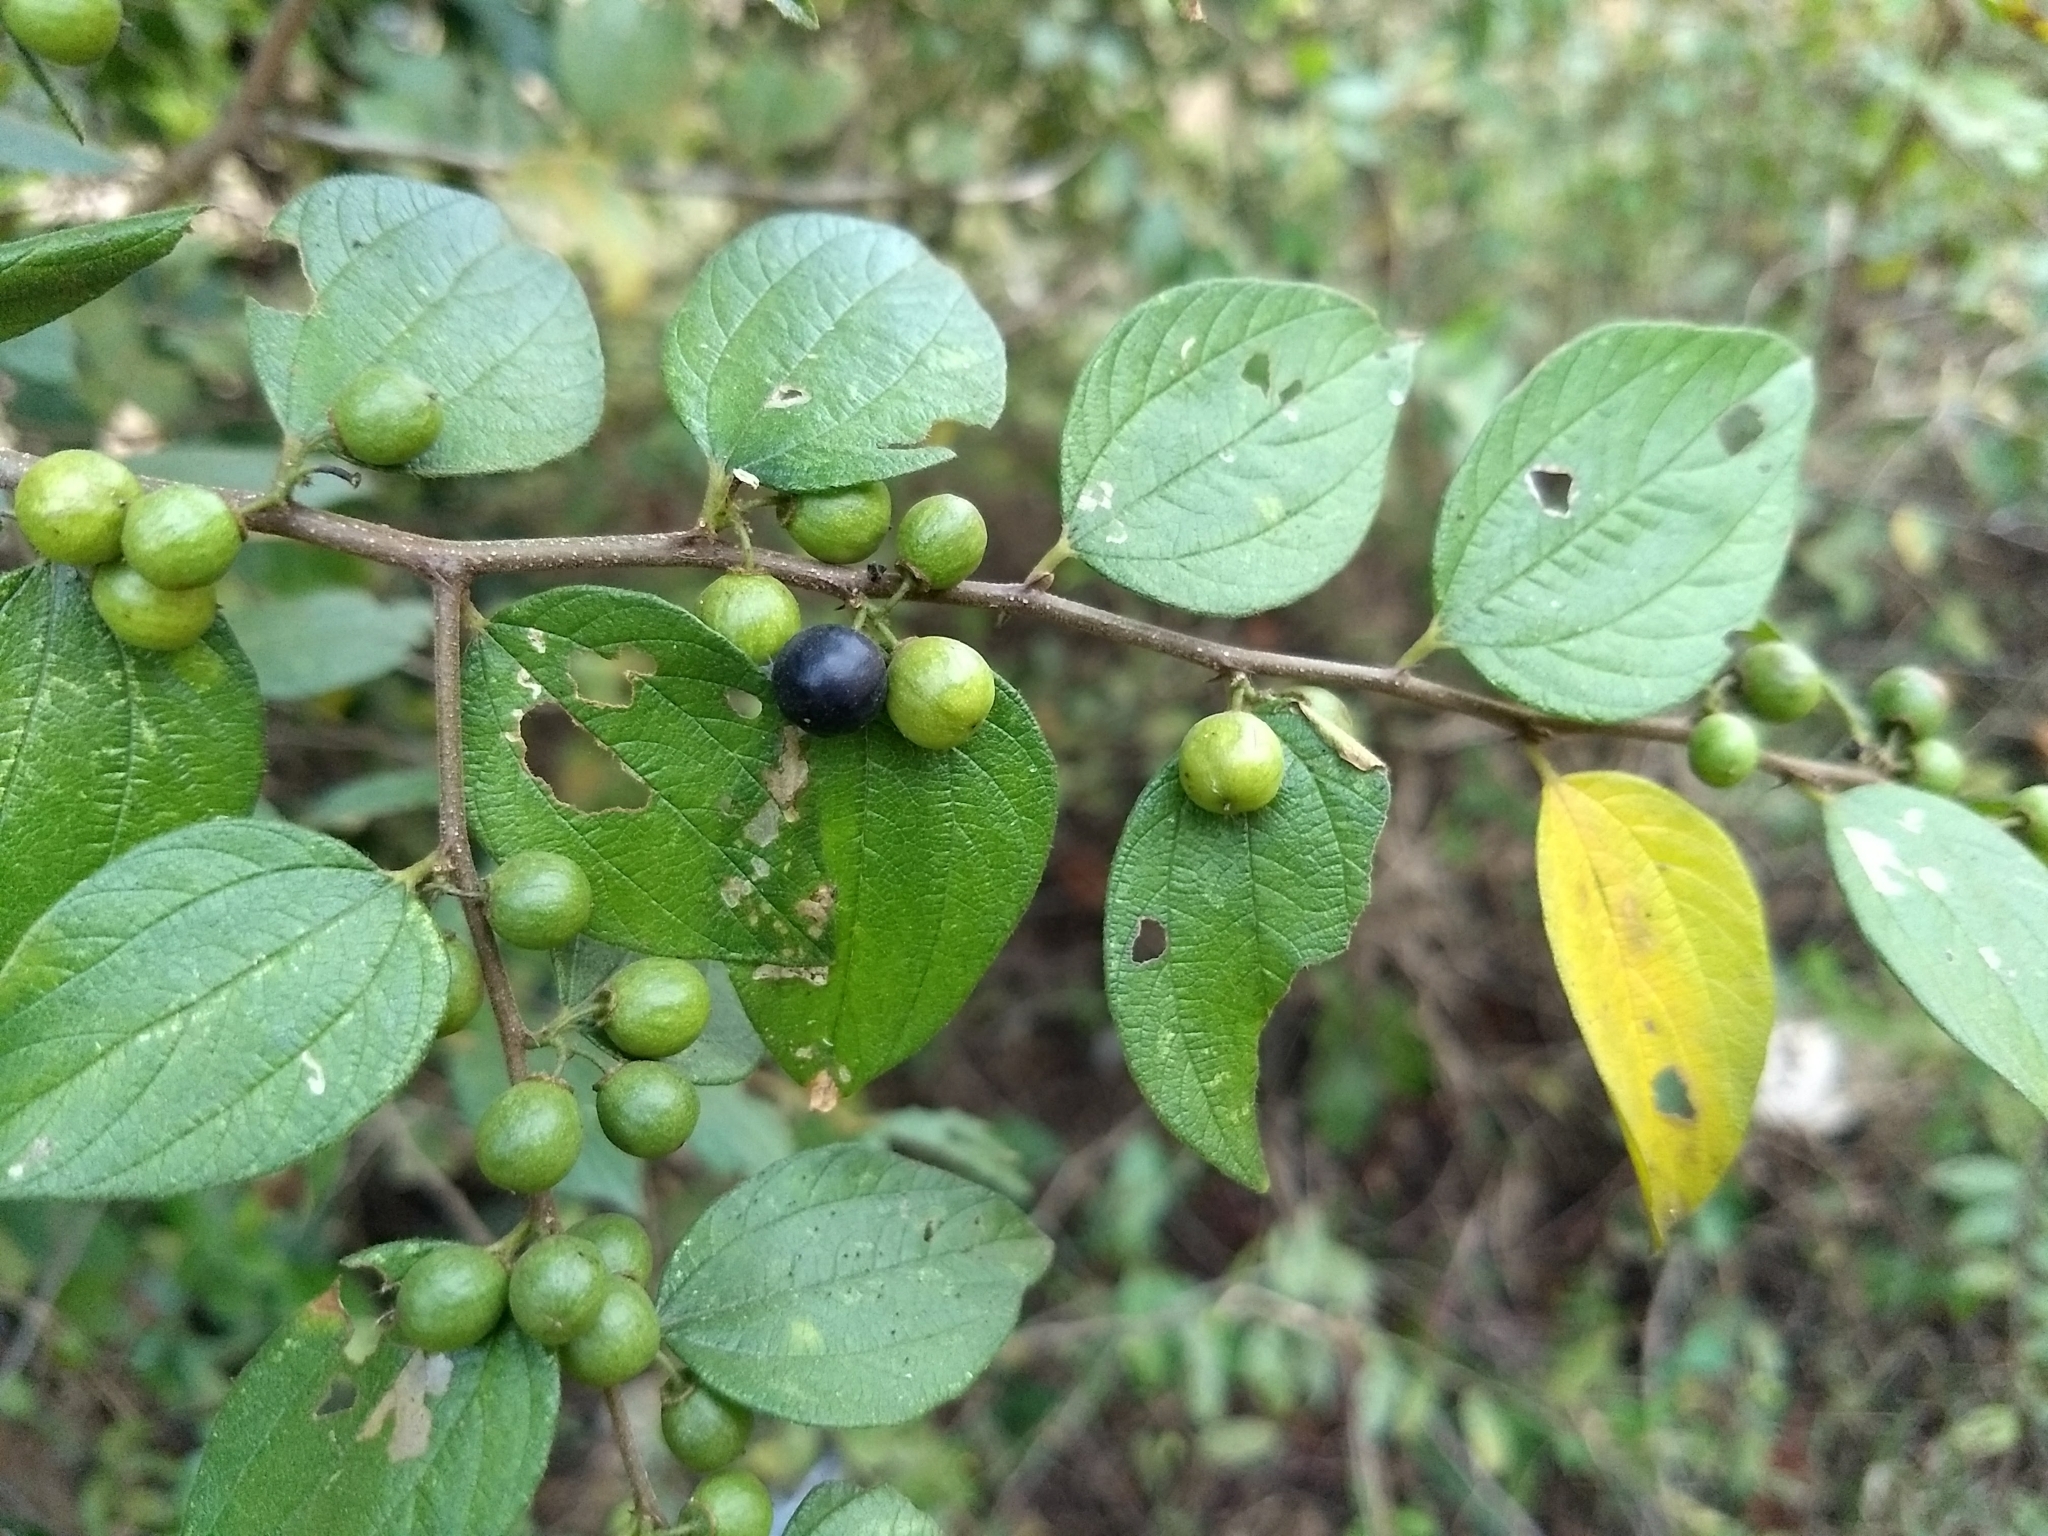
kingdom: Plantae
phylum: Tracheophyta
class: Magnoliopsida
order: Rosales
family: Rhamnaceae
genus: Ziziphus
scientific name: Ziziphus oenopolia
